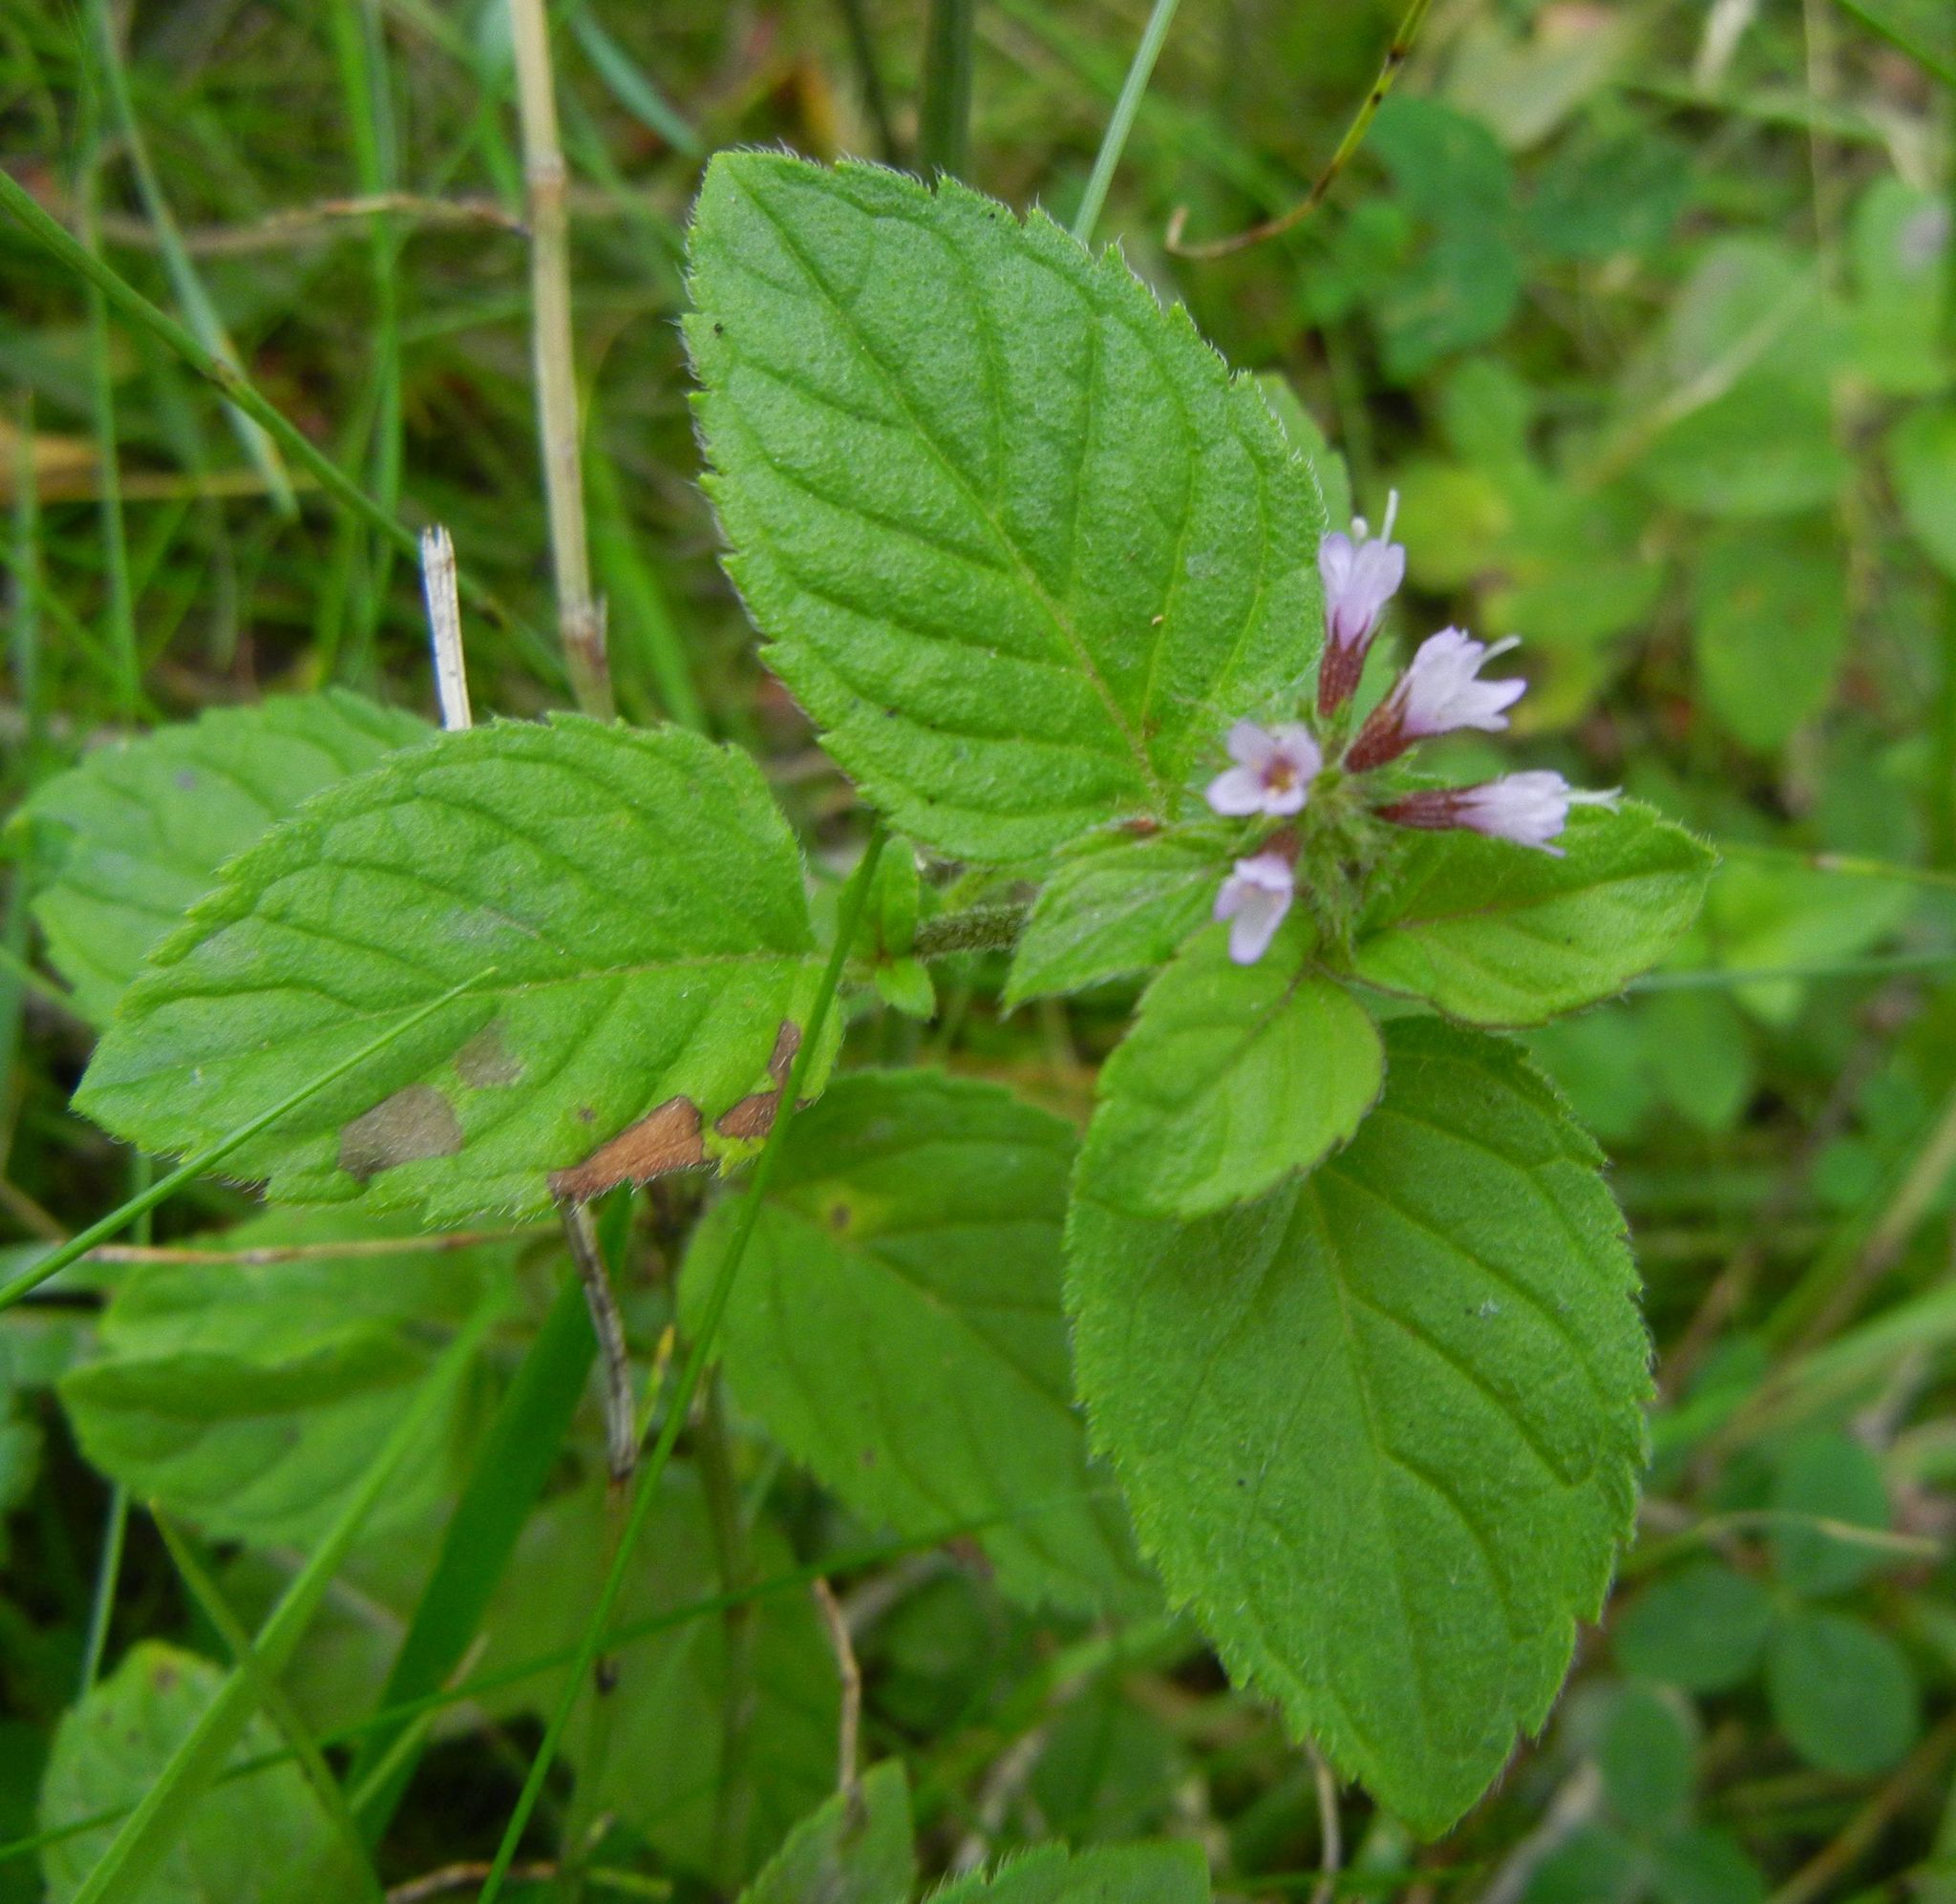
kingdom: Plantae
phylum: Tracheophyta
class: Magnoliopsida
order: Lamiales
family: Lamiaceae
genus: Mentha
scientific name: Mentha aquatica
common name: Water mint
